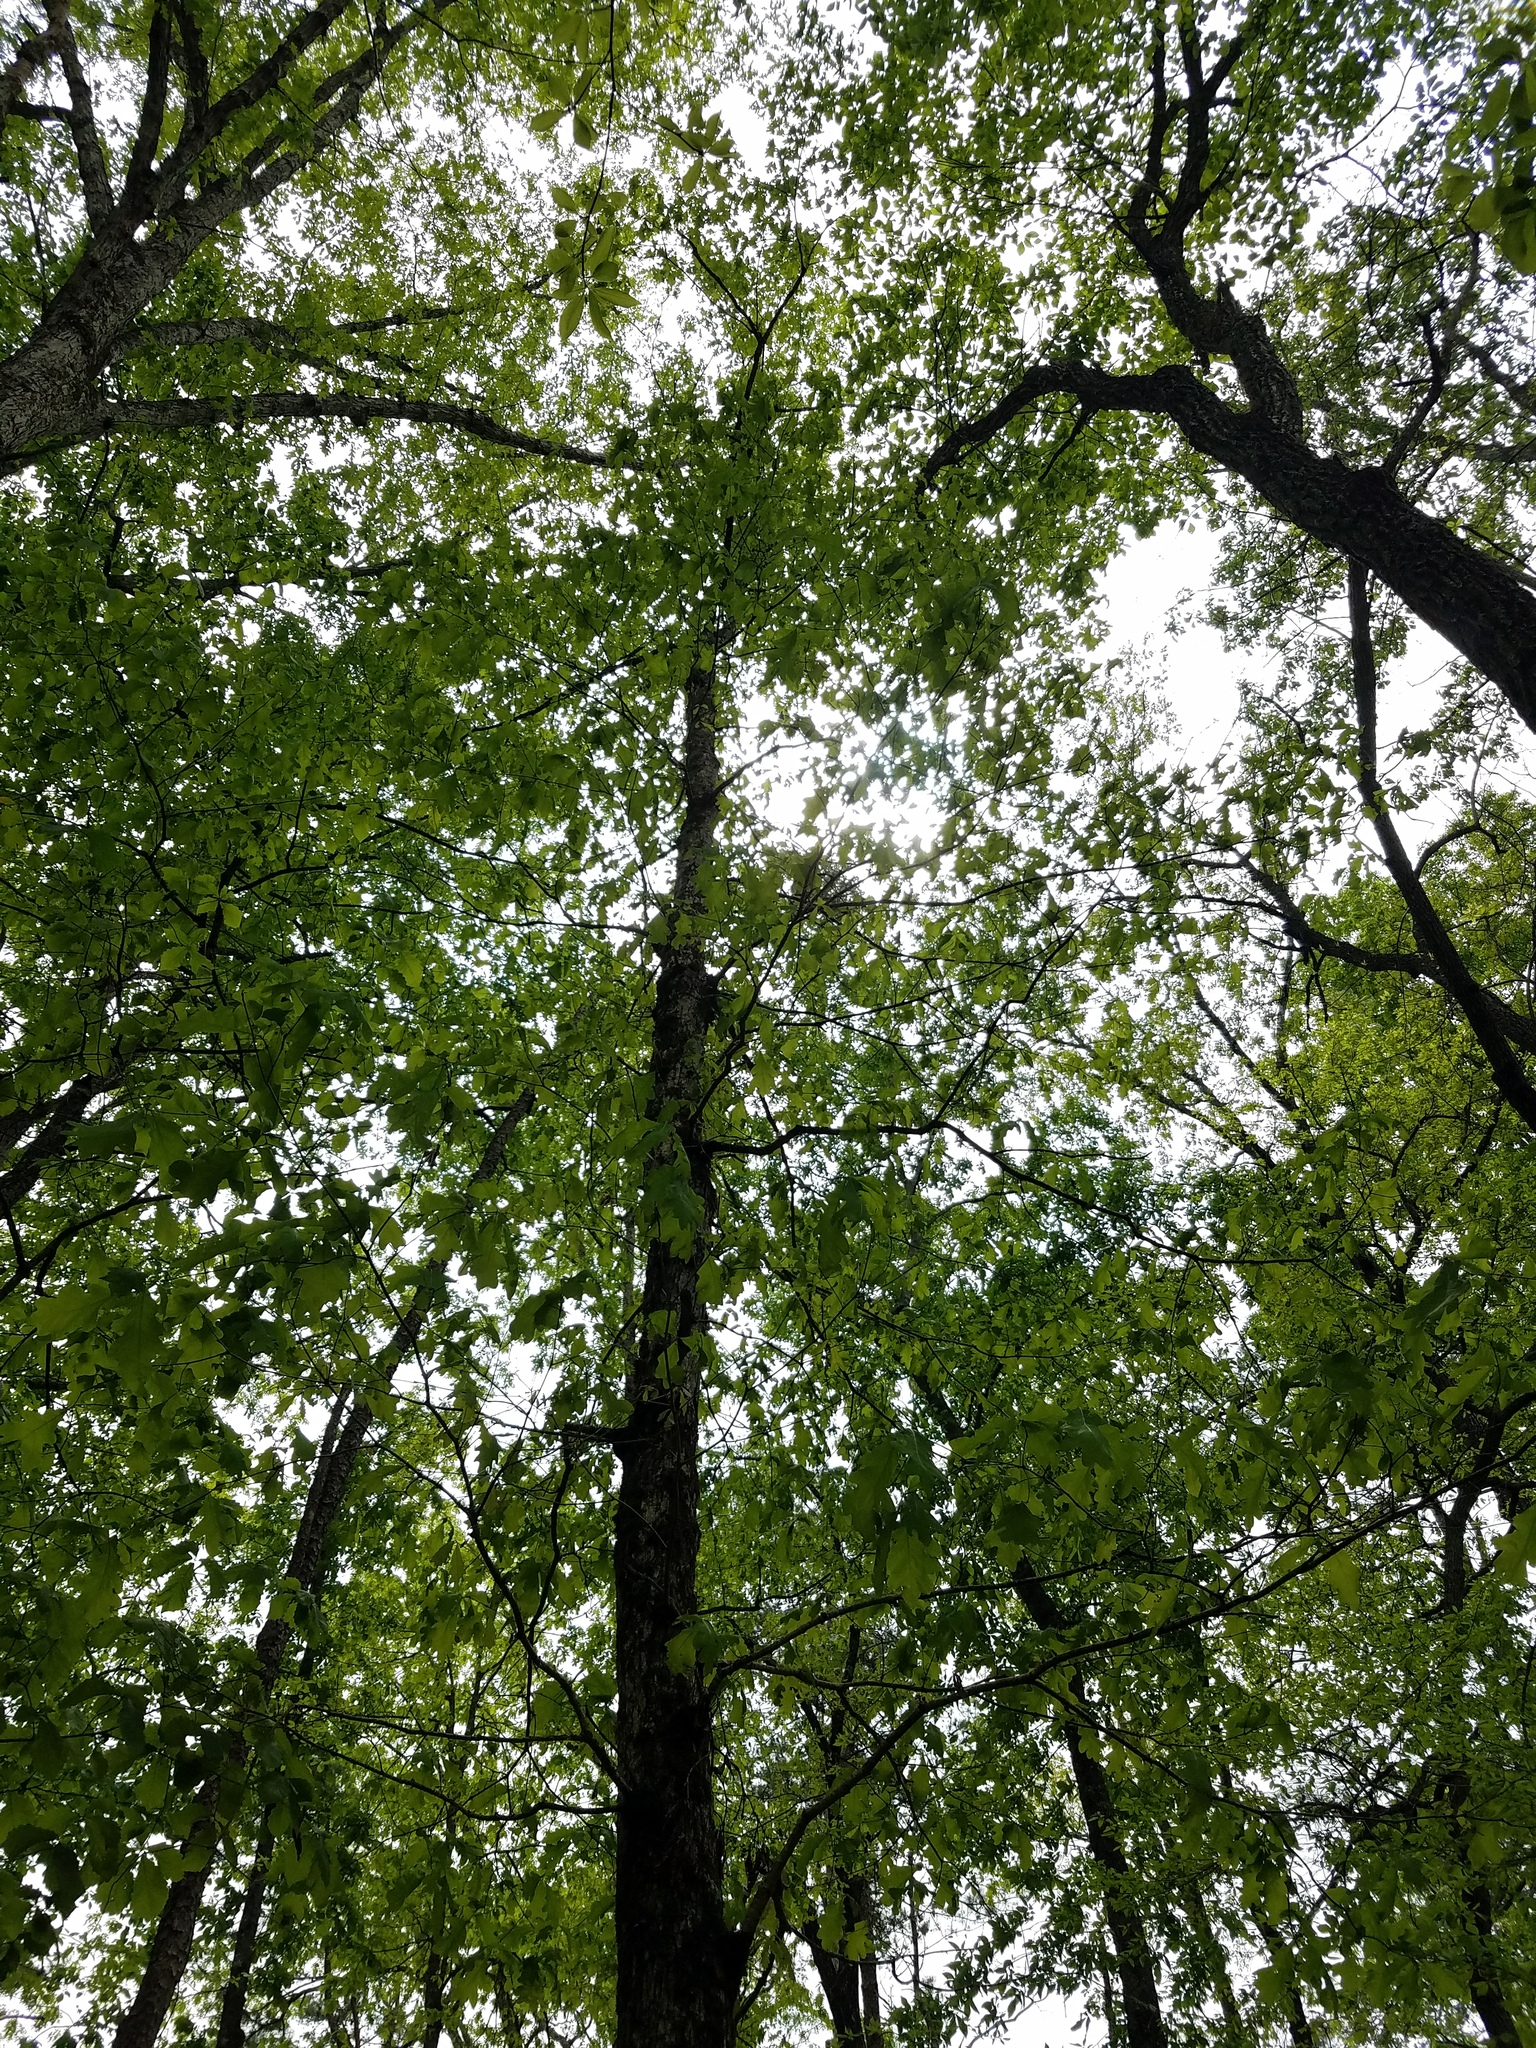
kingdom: Plantae
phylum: Tracheophyta
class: Magnoliopsida
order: Fagales
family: Fagaceae
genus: Quercus
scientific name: Quercus alba
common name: White oak
